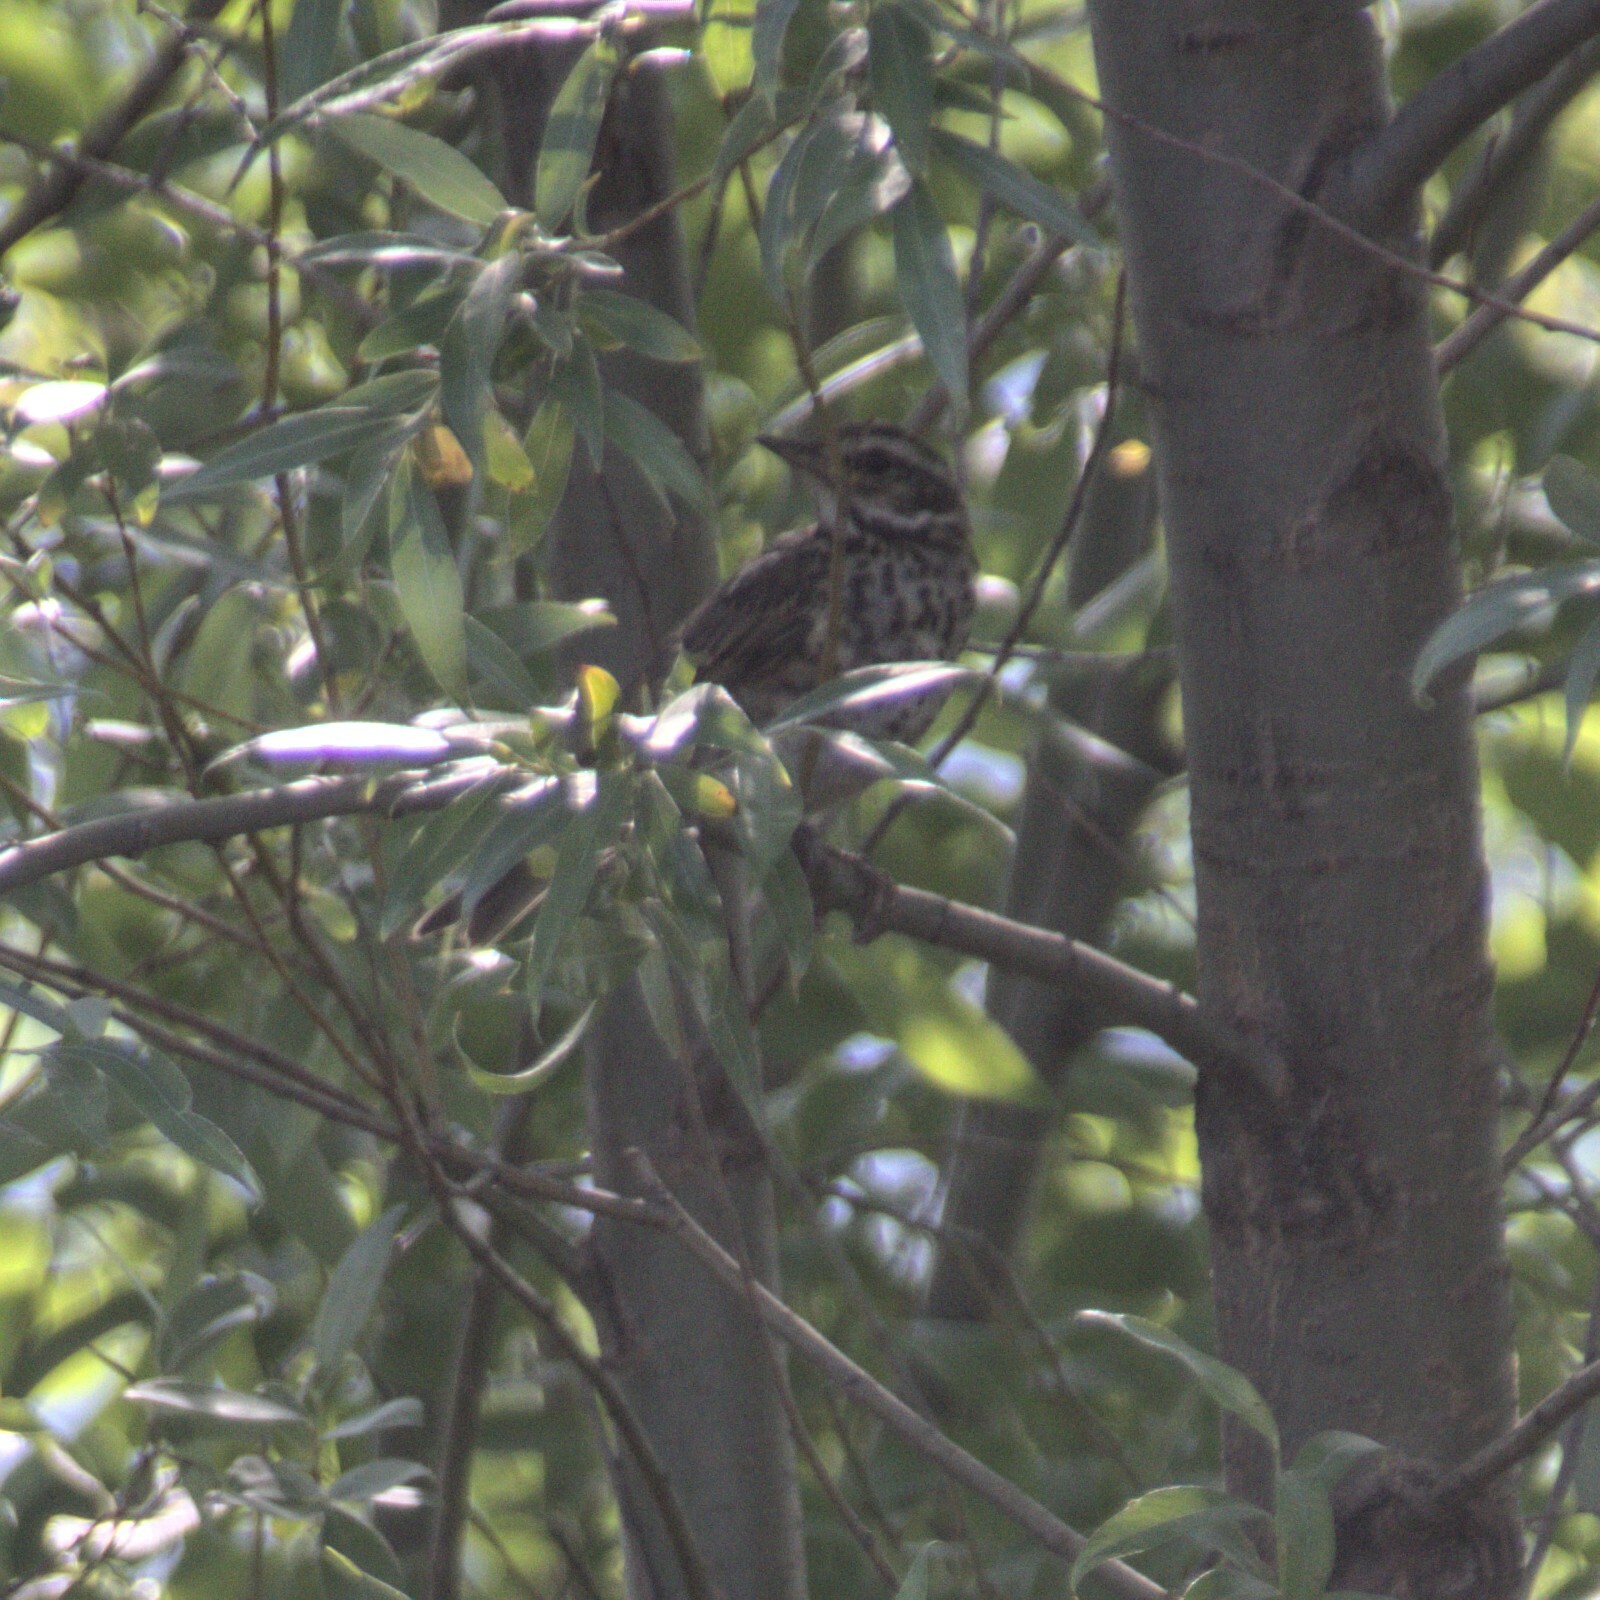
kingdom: Animalia
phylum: Chordata
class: Aves
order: Passeriformes
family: Turdidae
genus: Turdus
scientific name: Turdus iliacus
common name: Redwing
